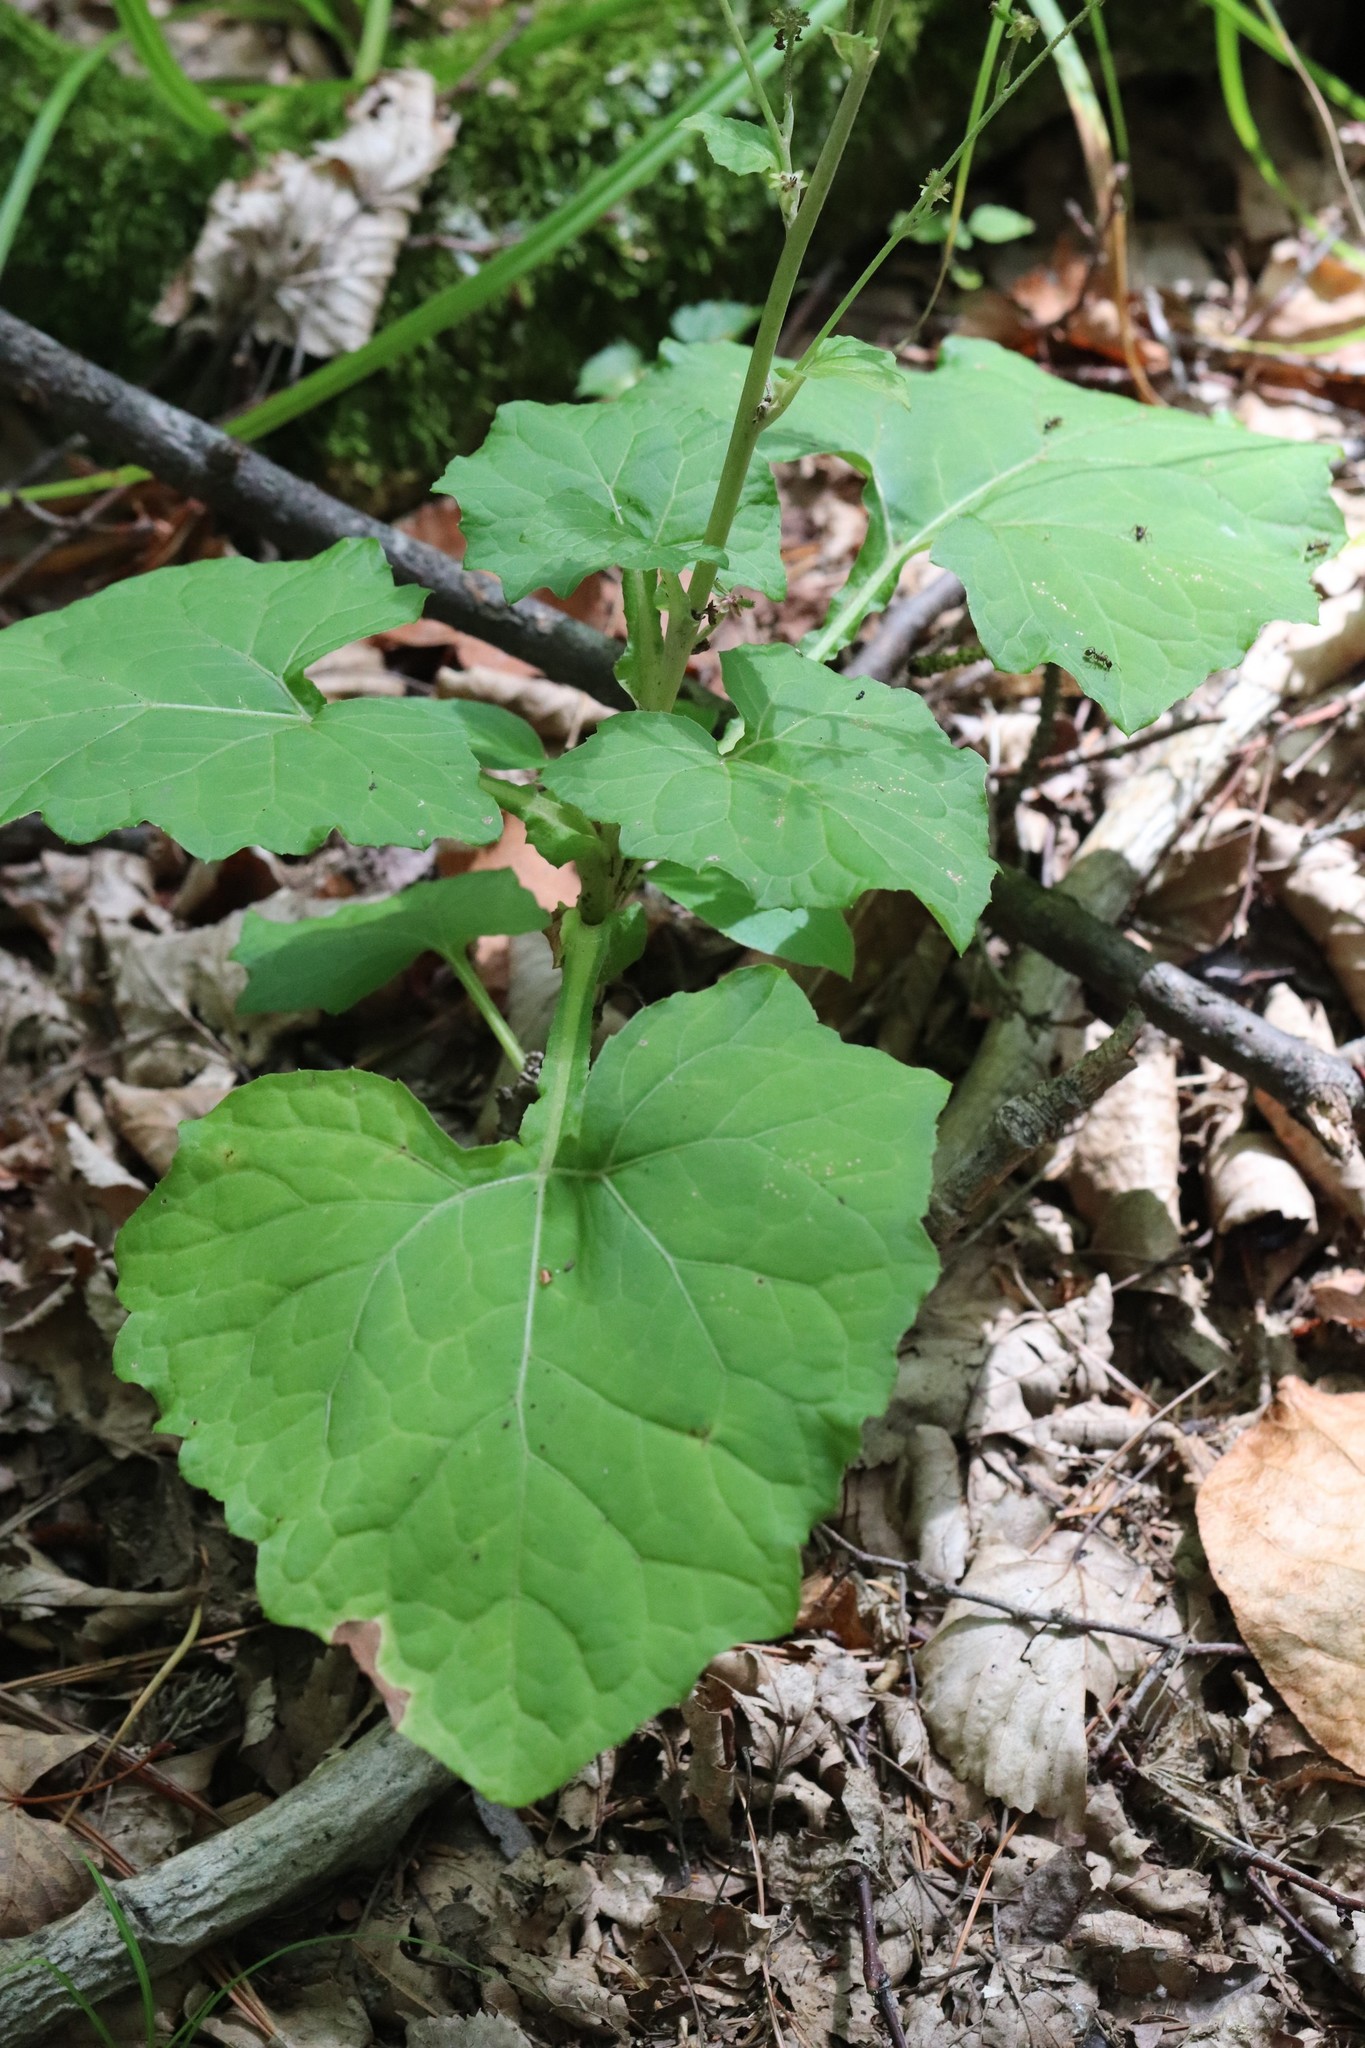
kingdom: Plantae
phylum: Tracheophyta
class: Magnoliopsida
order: Asterales
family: Asteraceae
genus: Adenocaulon
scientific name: Adenocaulon himalaicum
